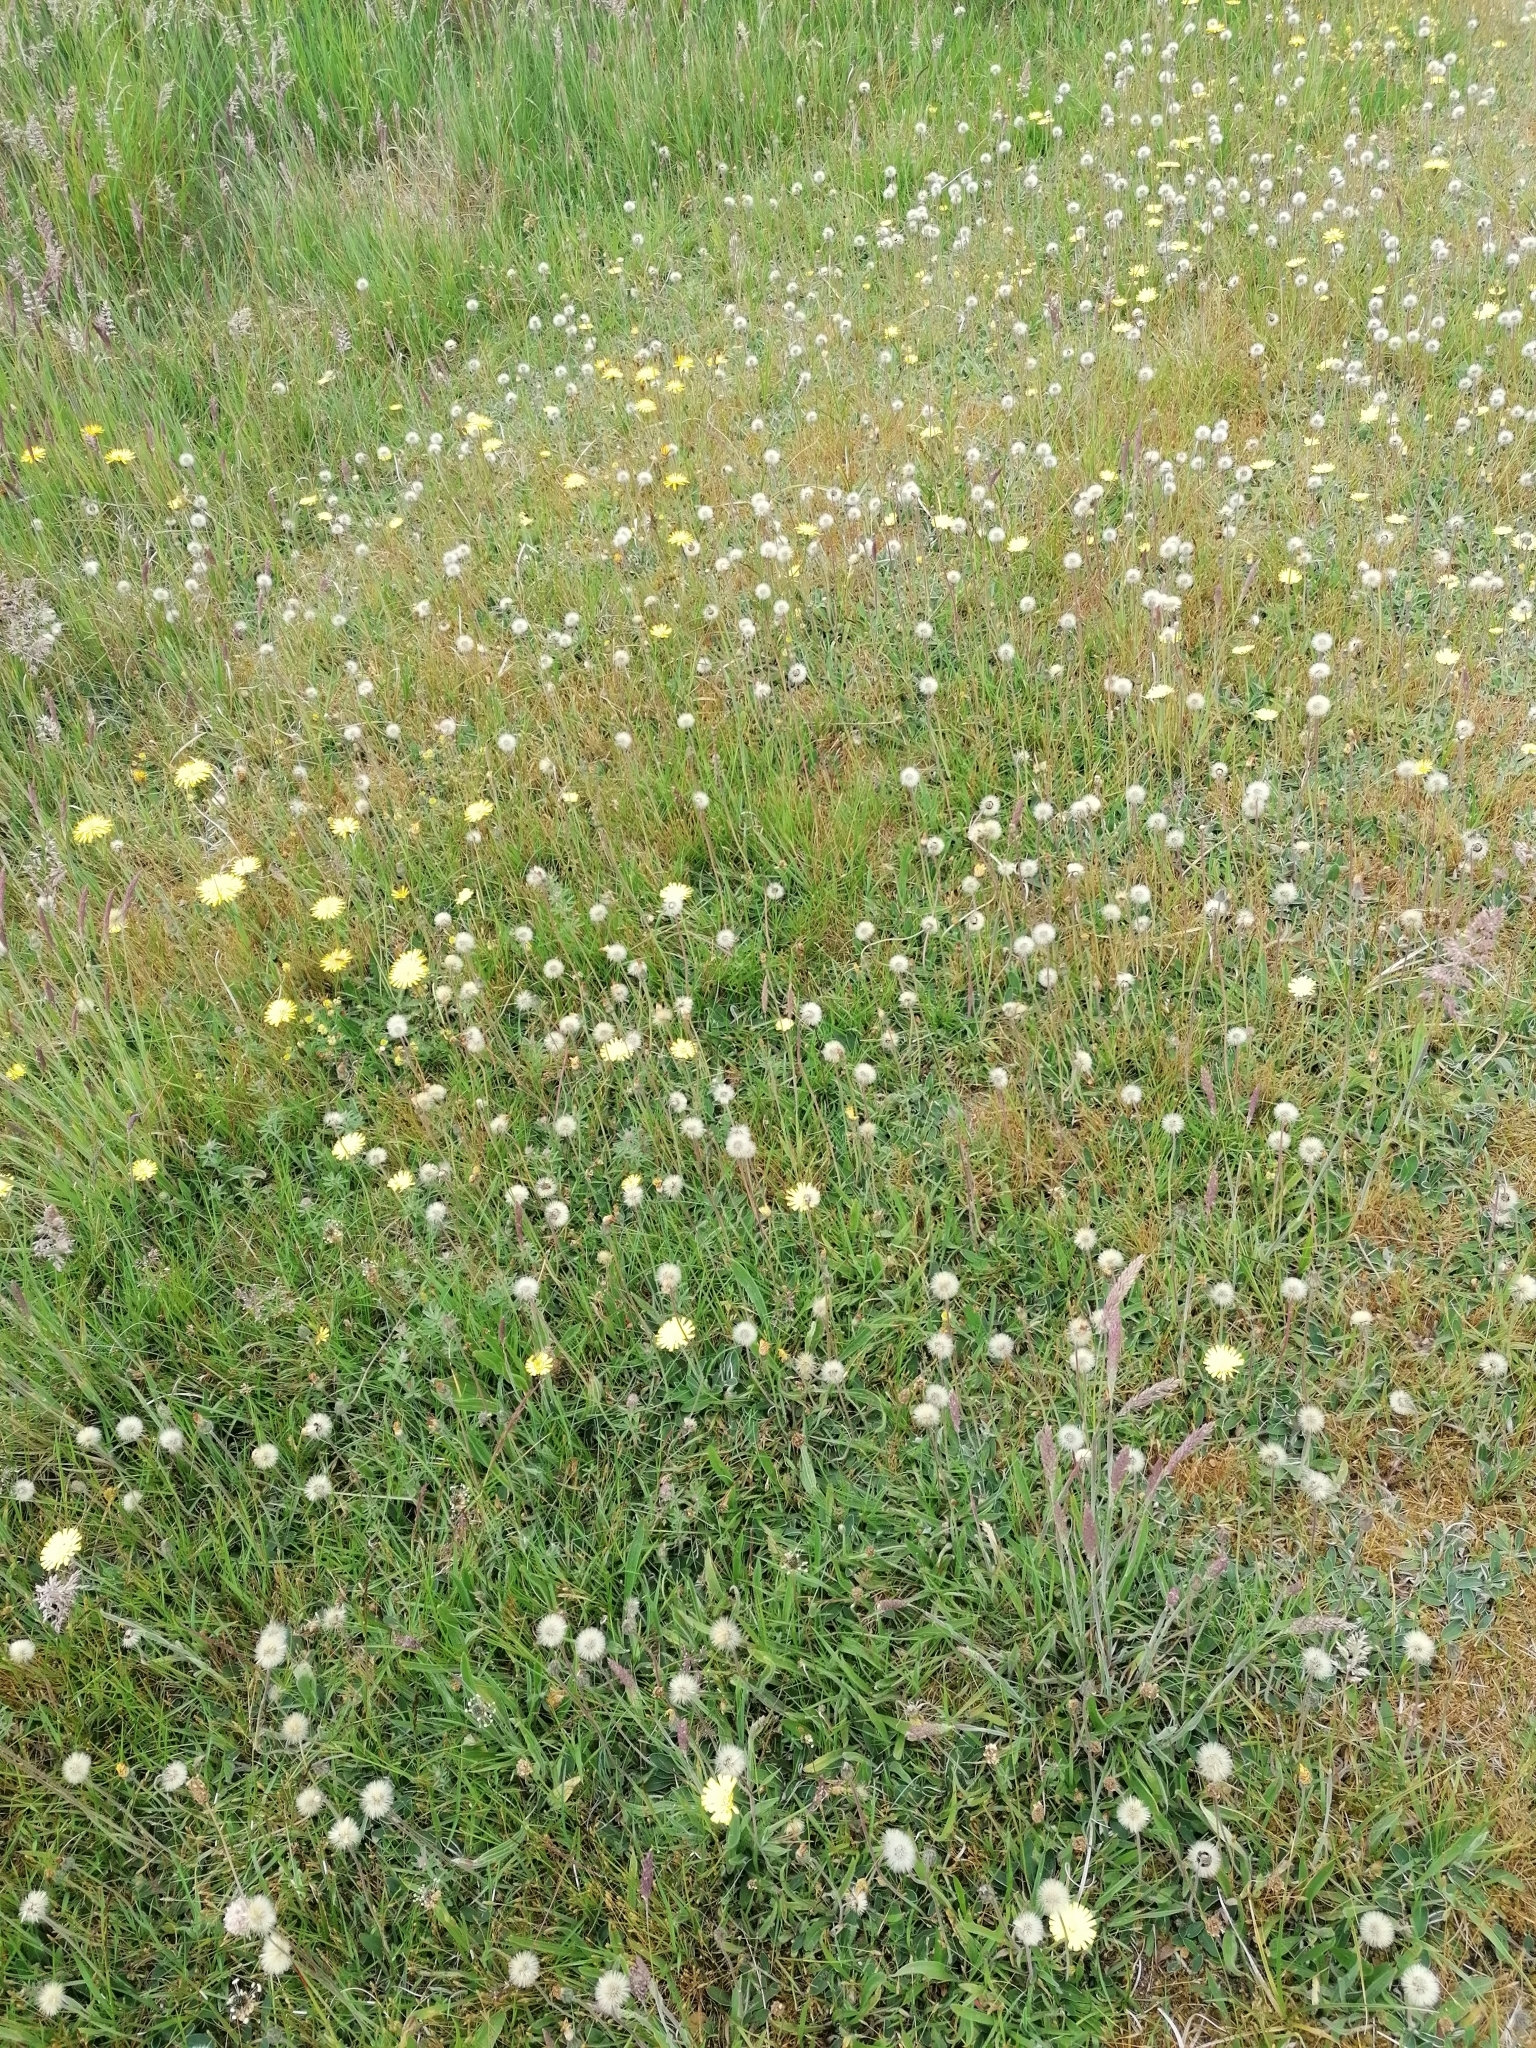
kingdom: Plantae
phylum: Tracheophyta
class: Magnoliopsida
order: Asterales
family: Asteraceae
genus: Pilosella
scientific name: Pilosella officinarum
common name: Mouse-ear hawkweed
